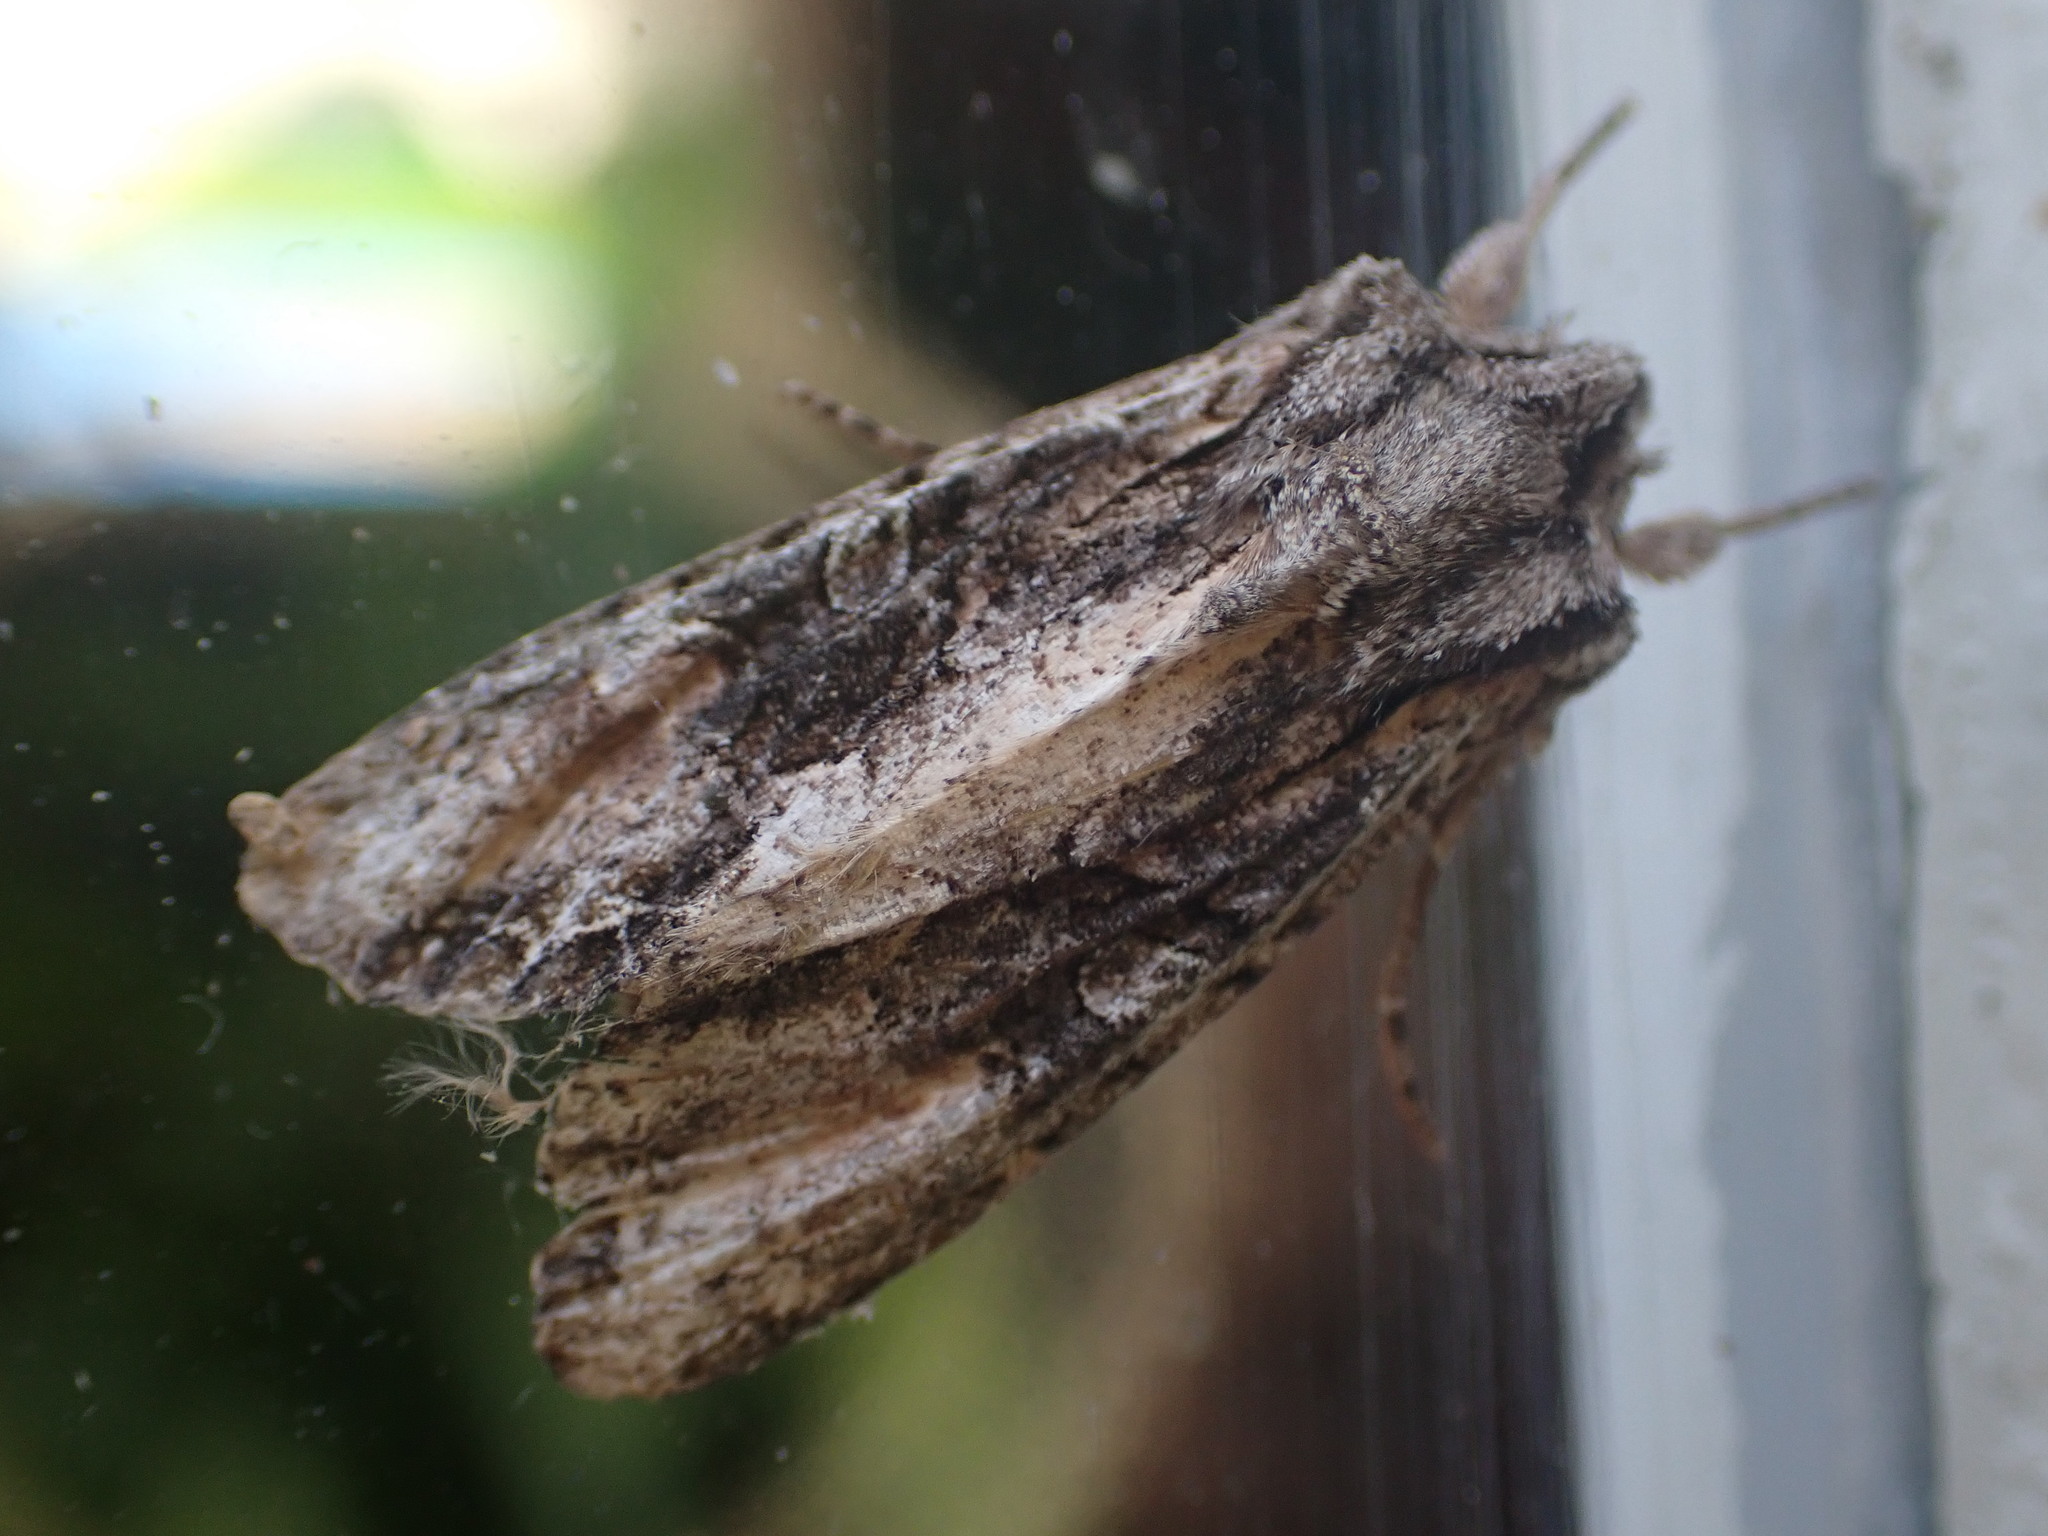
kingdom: Animalia
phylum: Arthropoda
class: Insecta
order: Lepidoptera
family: Noctuidae
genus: Ichneutica
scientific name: Ichneutica mutans
